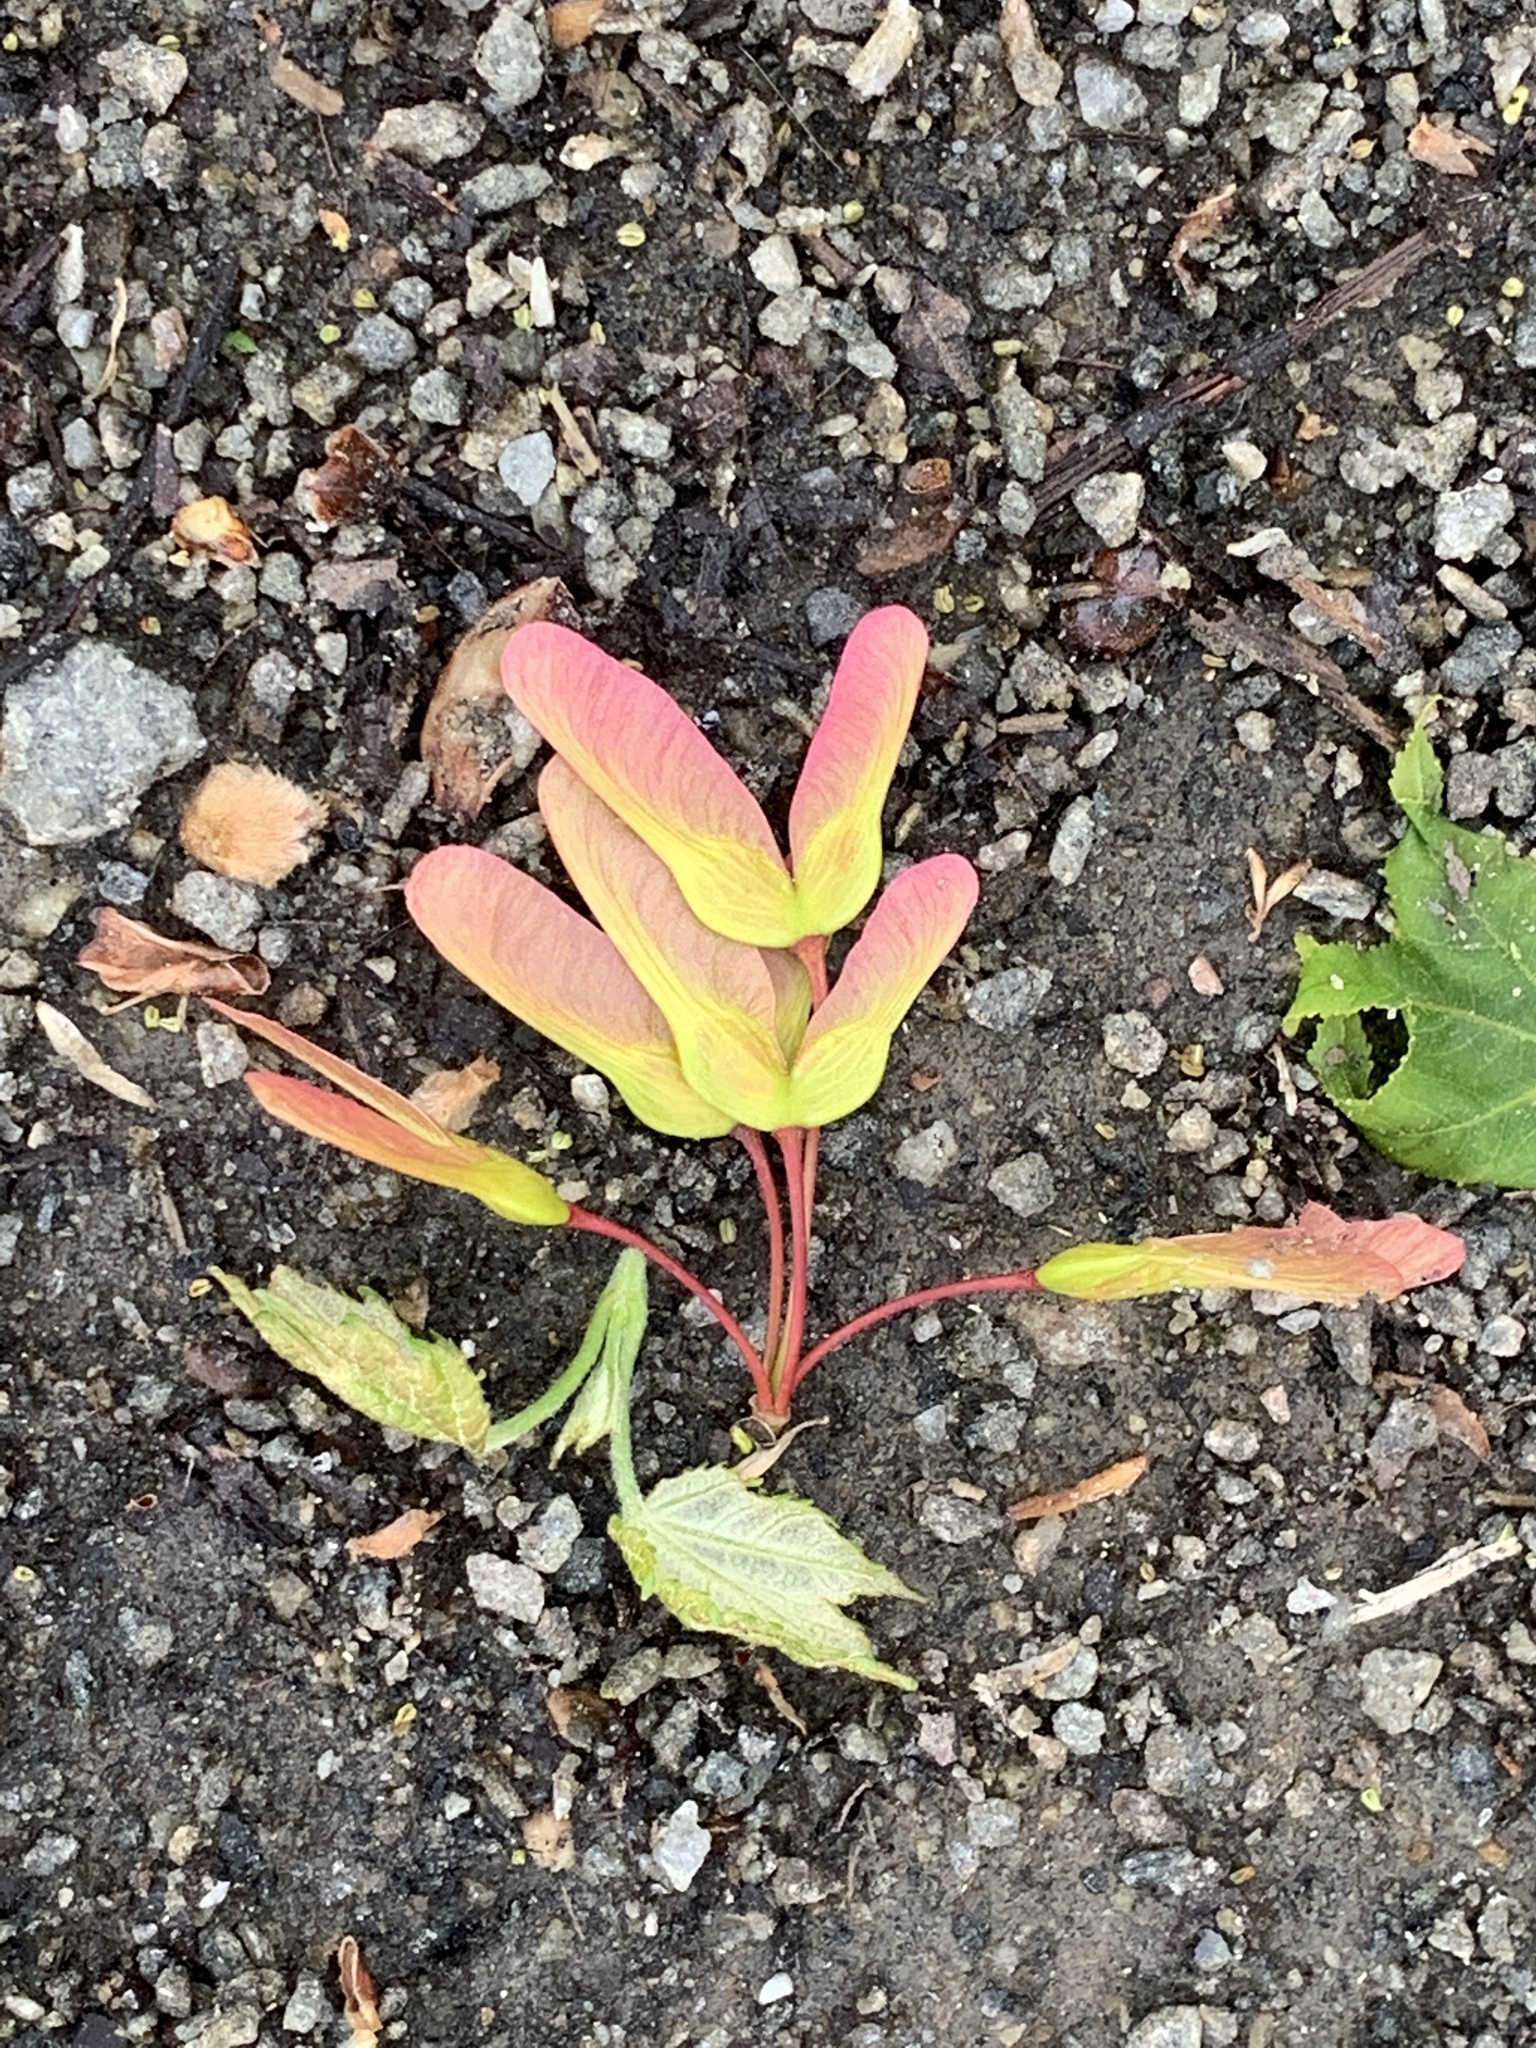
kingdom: Plantae
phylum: Tracheophyta
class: Magnoliopsida
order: Sapindales
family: Sapindaceae
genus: Acer
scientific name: Acer rubrum
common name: Red maple
